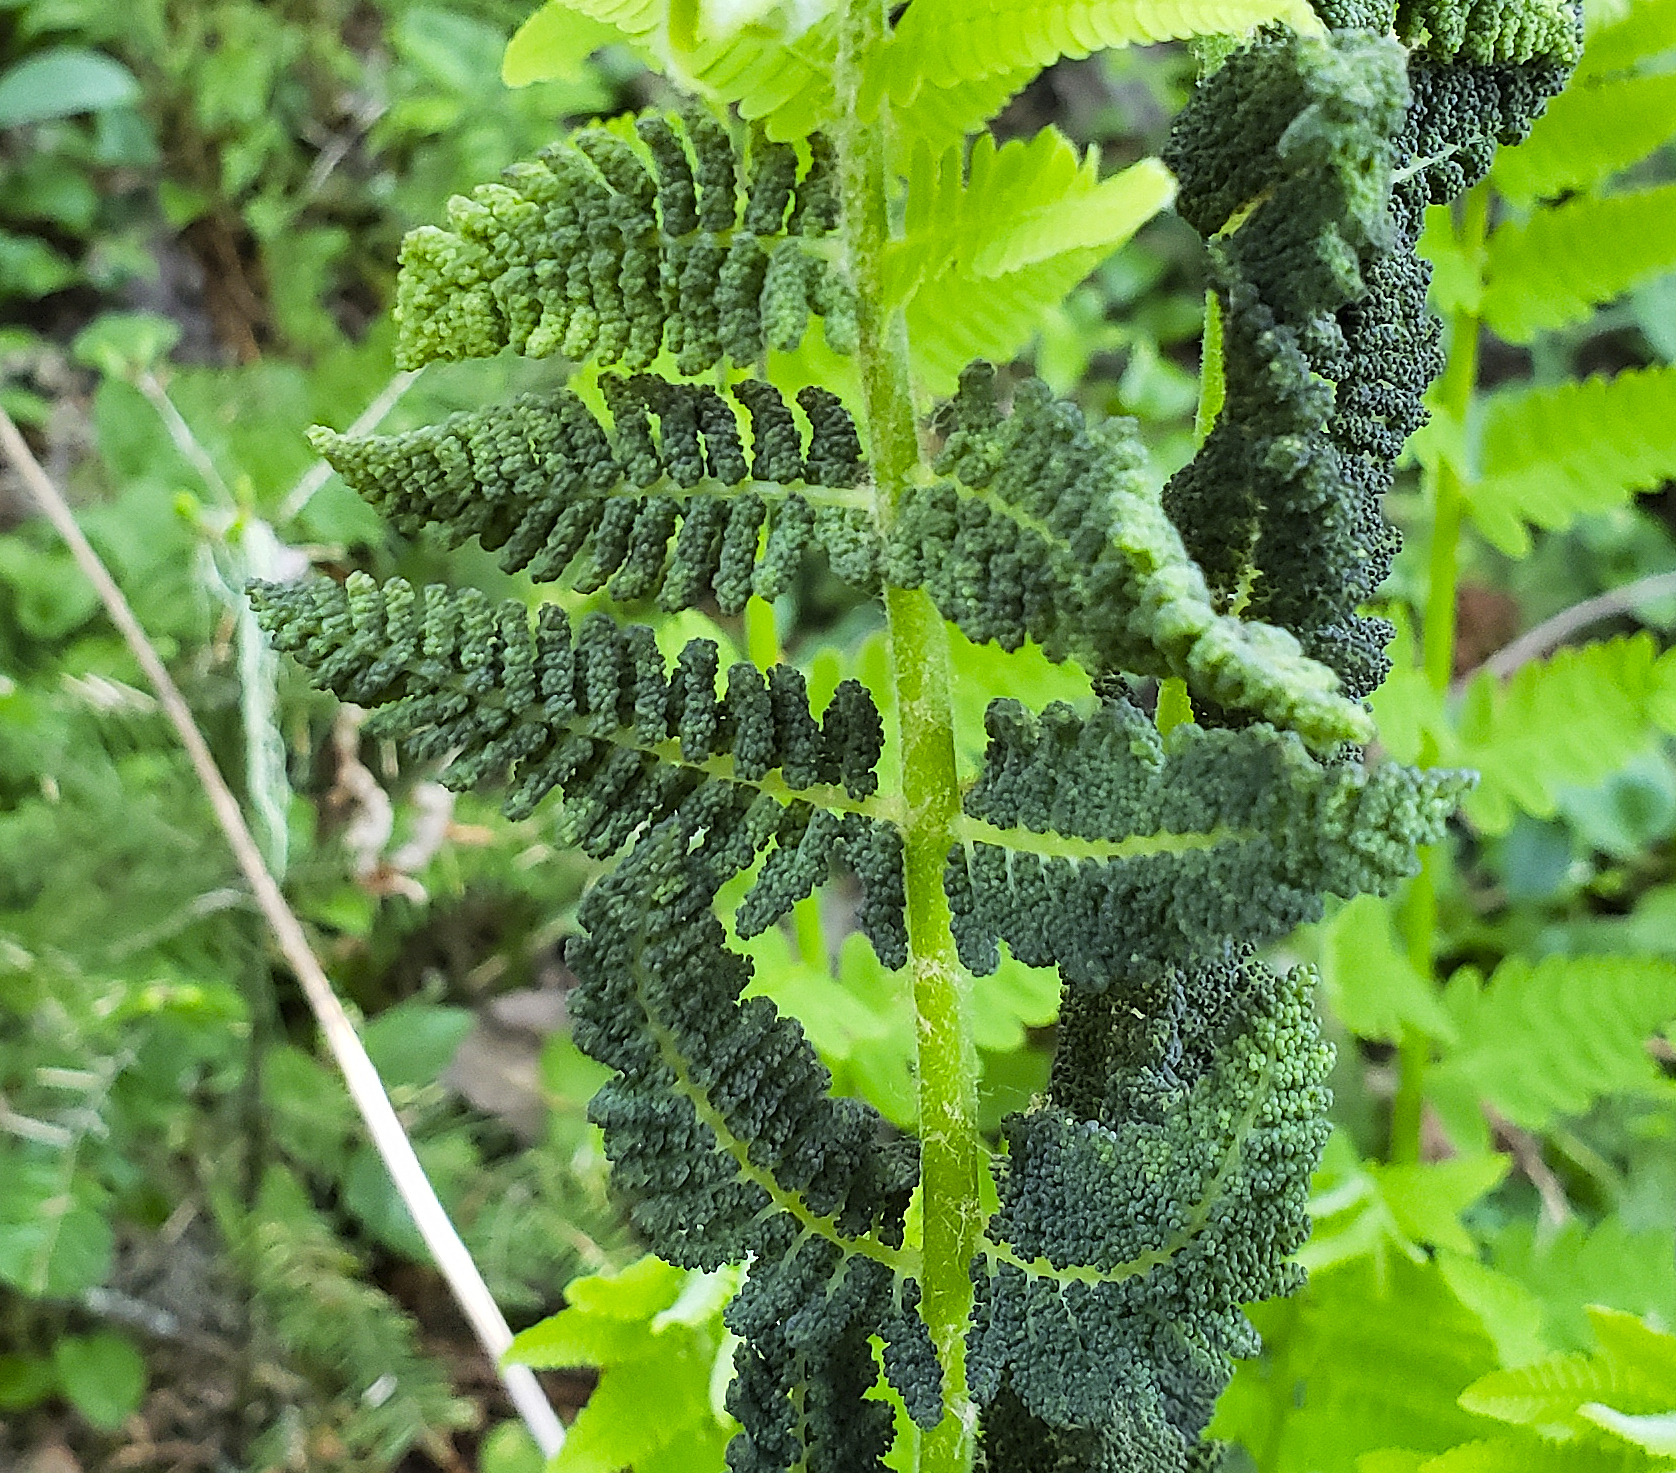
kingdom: Plantae
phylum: Tracheophyta
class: Polypodiopsida
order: Osmundales
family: Osmundaceae
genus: Claytosmunda
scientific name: Claytosmunda claytoniana
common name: Clayton's fern
